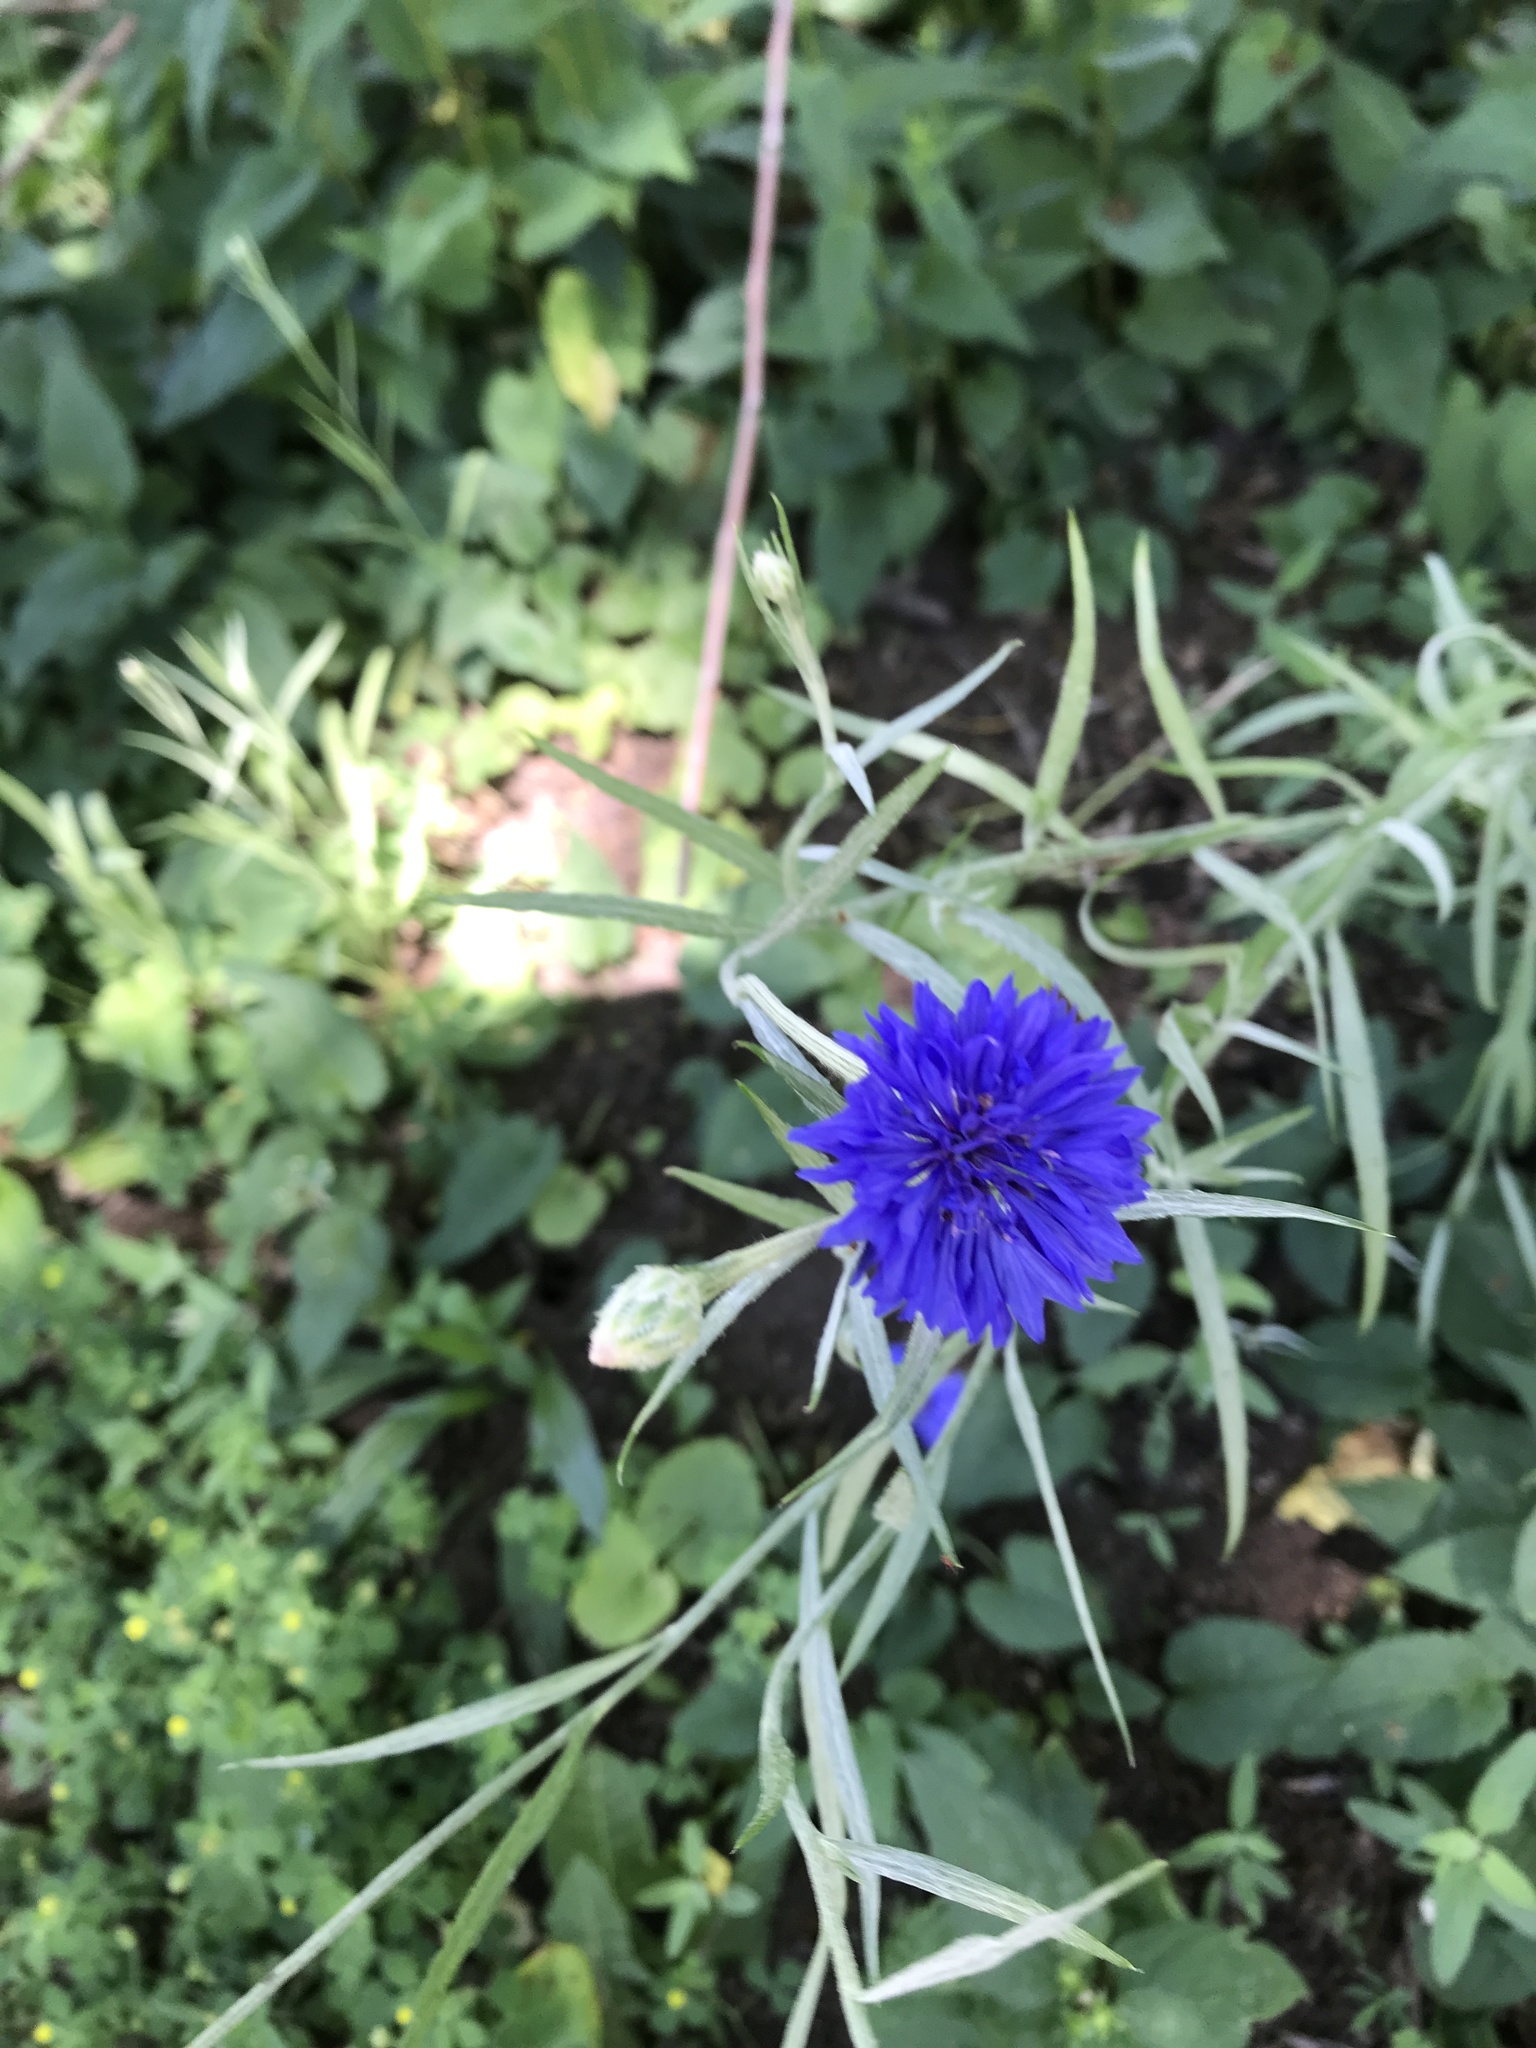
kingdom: Plantae
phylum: Tracheophyta
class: Magnoliopsida
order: Asterales
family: Asteraceae
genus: Centaurea
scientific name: Centaurea cyanus
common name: Cornflower
